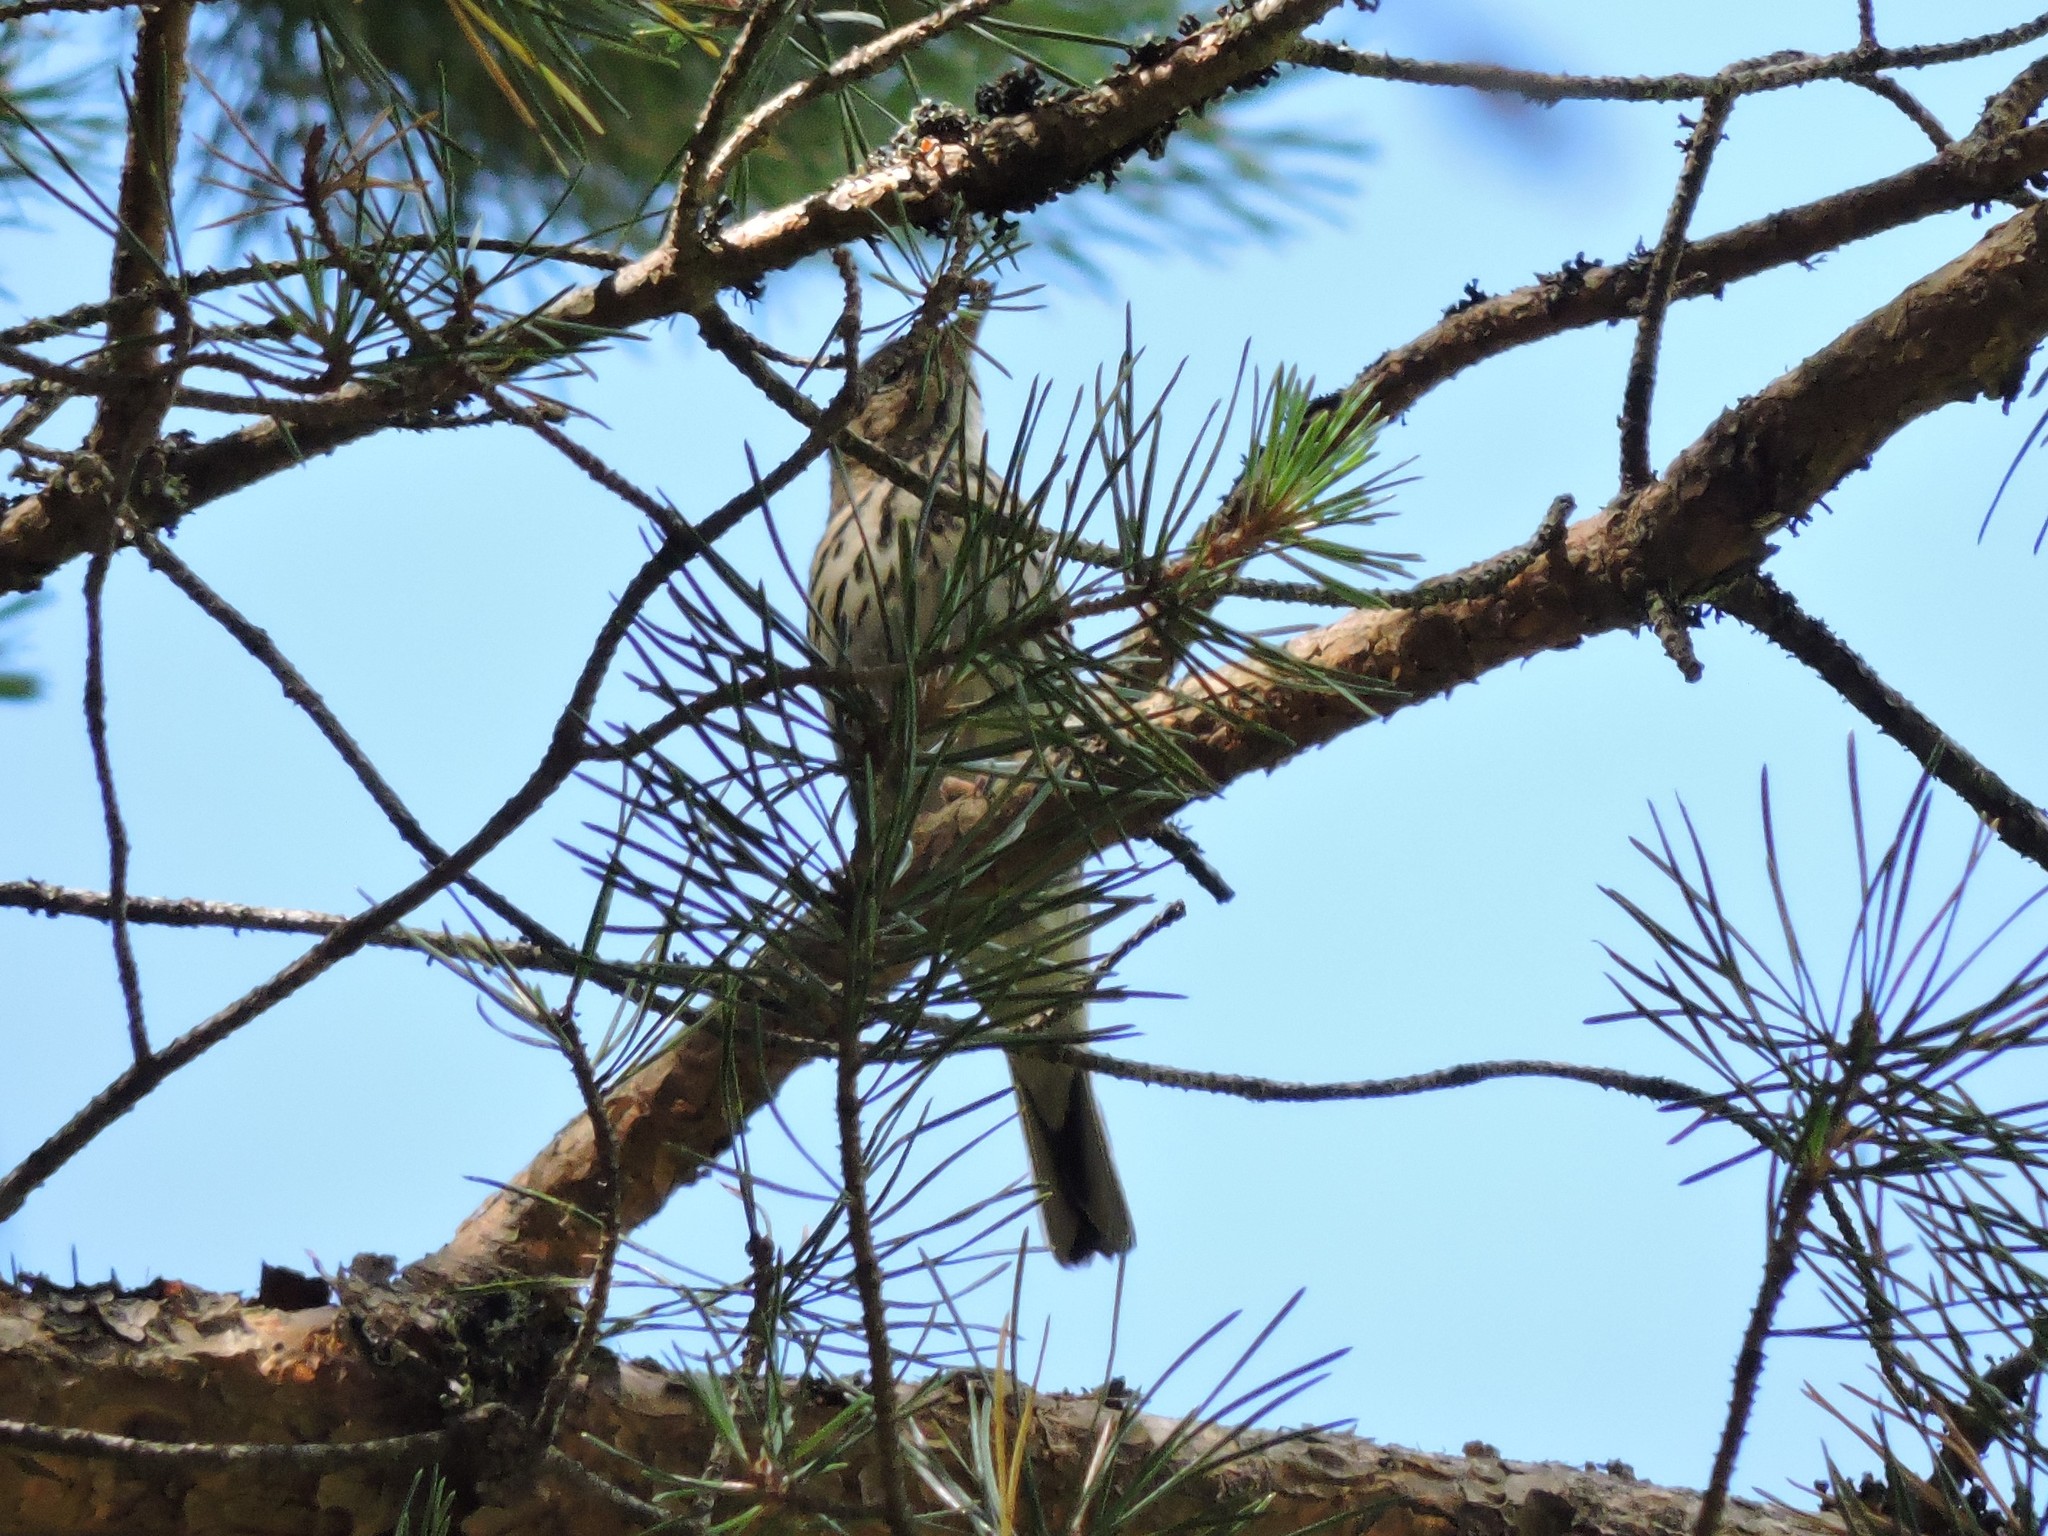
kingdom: Animalia
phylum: Chordata
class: Aves
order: Passeriformes
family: Motacillidae
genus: Anthus
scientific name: Anthus trivialis
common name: Tree pipit
